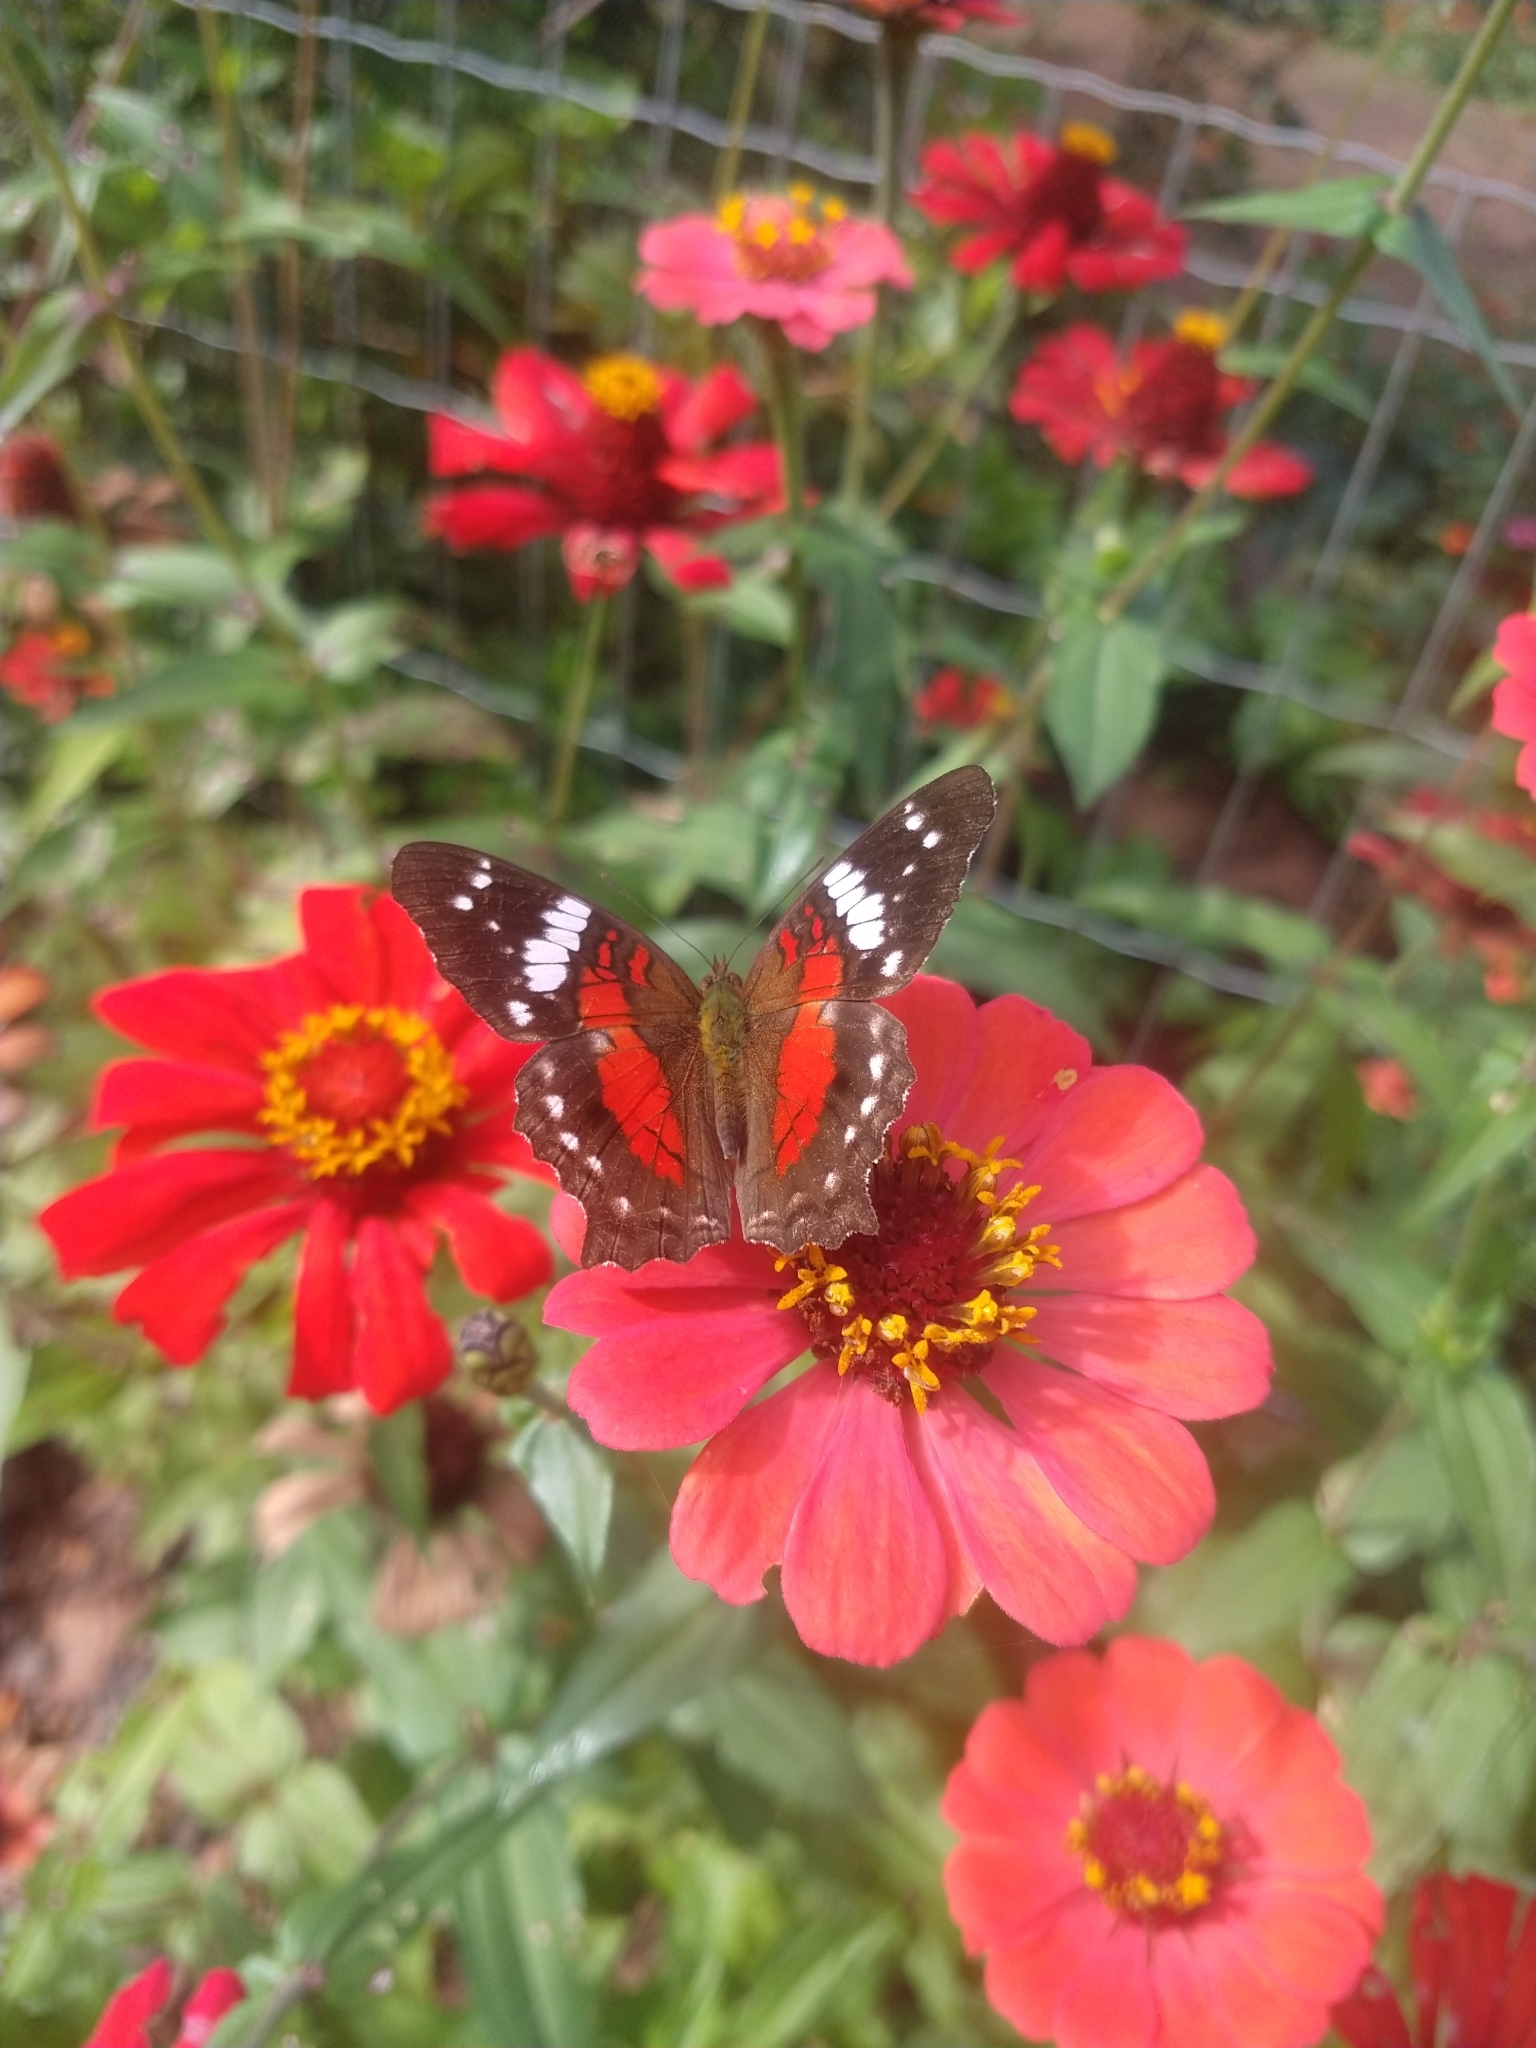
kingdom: Animalia
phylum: Arthropoda
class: Insecta
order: Lepidoptera
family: Nymphalidae
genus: Anartia
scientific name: Anartia amathea
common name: Red peacock
